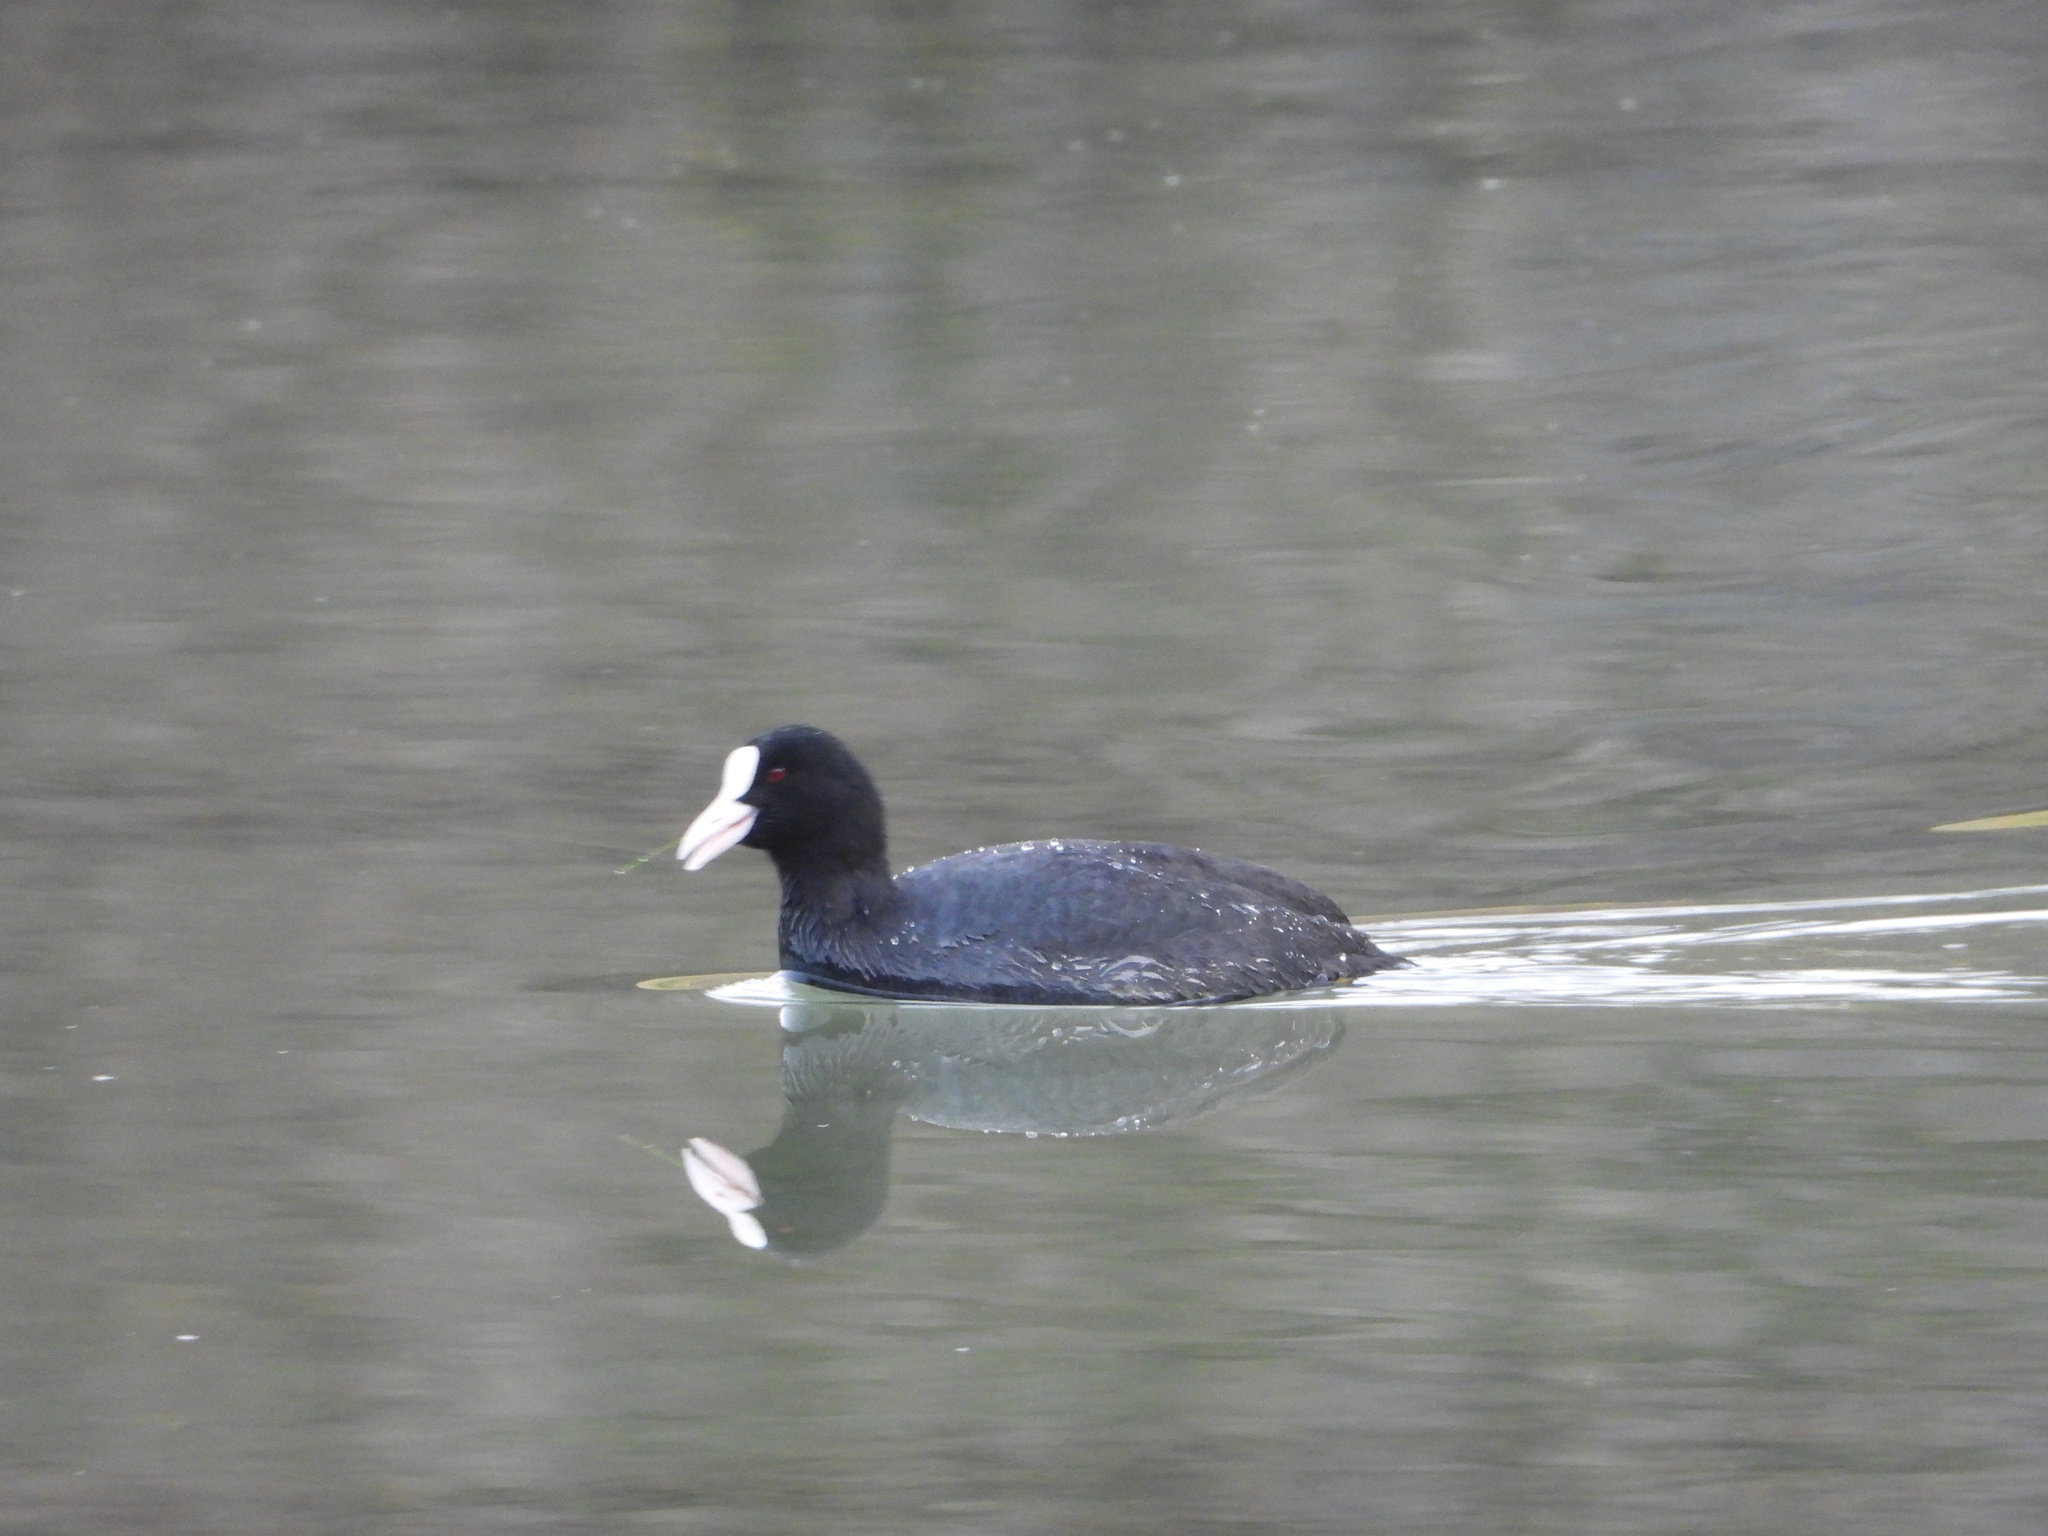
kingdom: Animalia
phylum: Chordata
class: Aves
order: Gruiformes
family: Rallidae
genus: Fulica
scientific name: Fulica atra
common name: Eurasian coot
